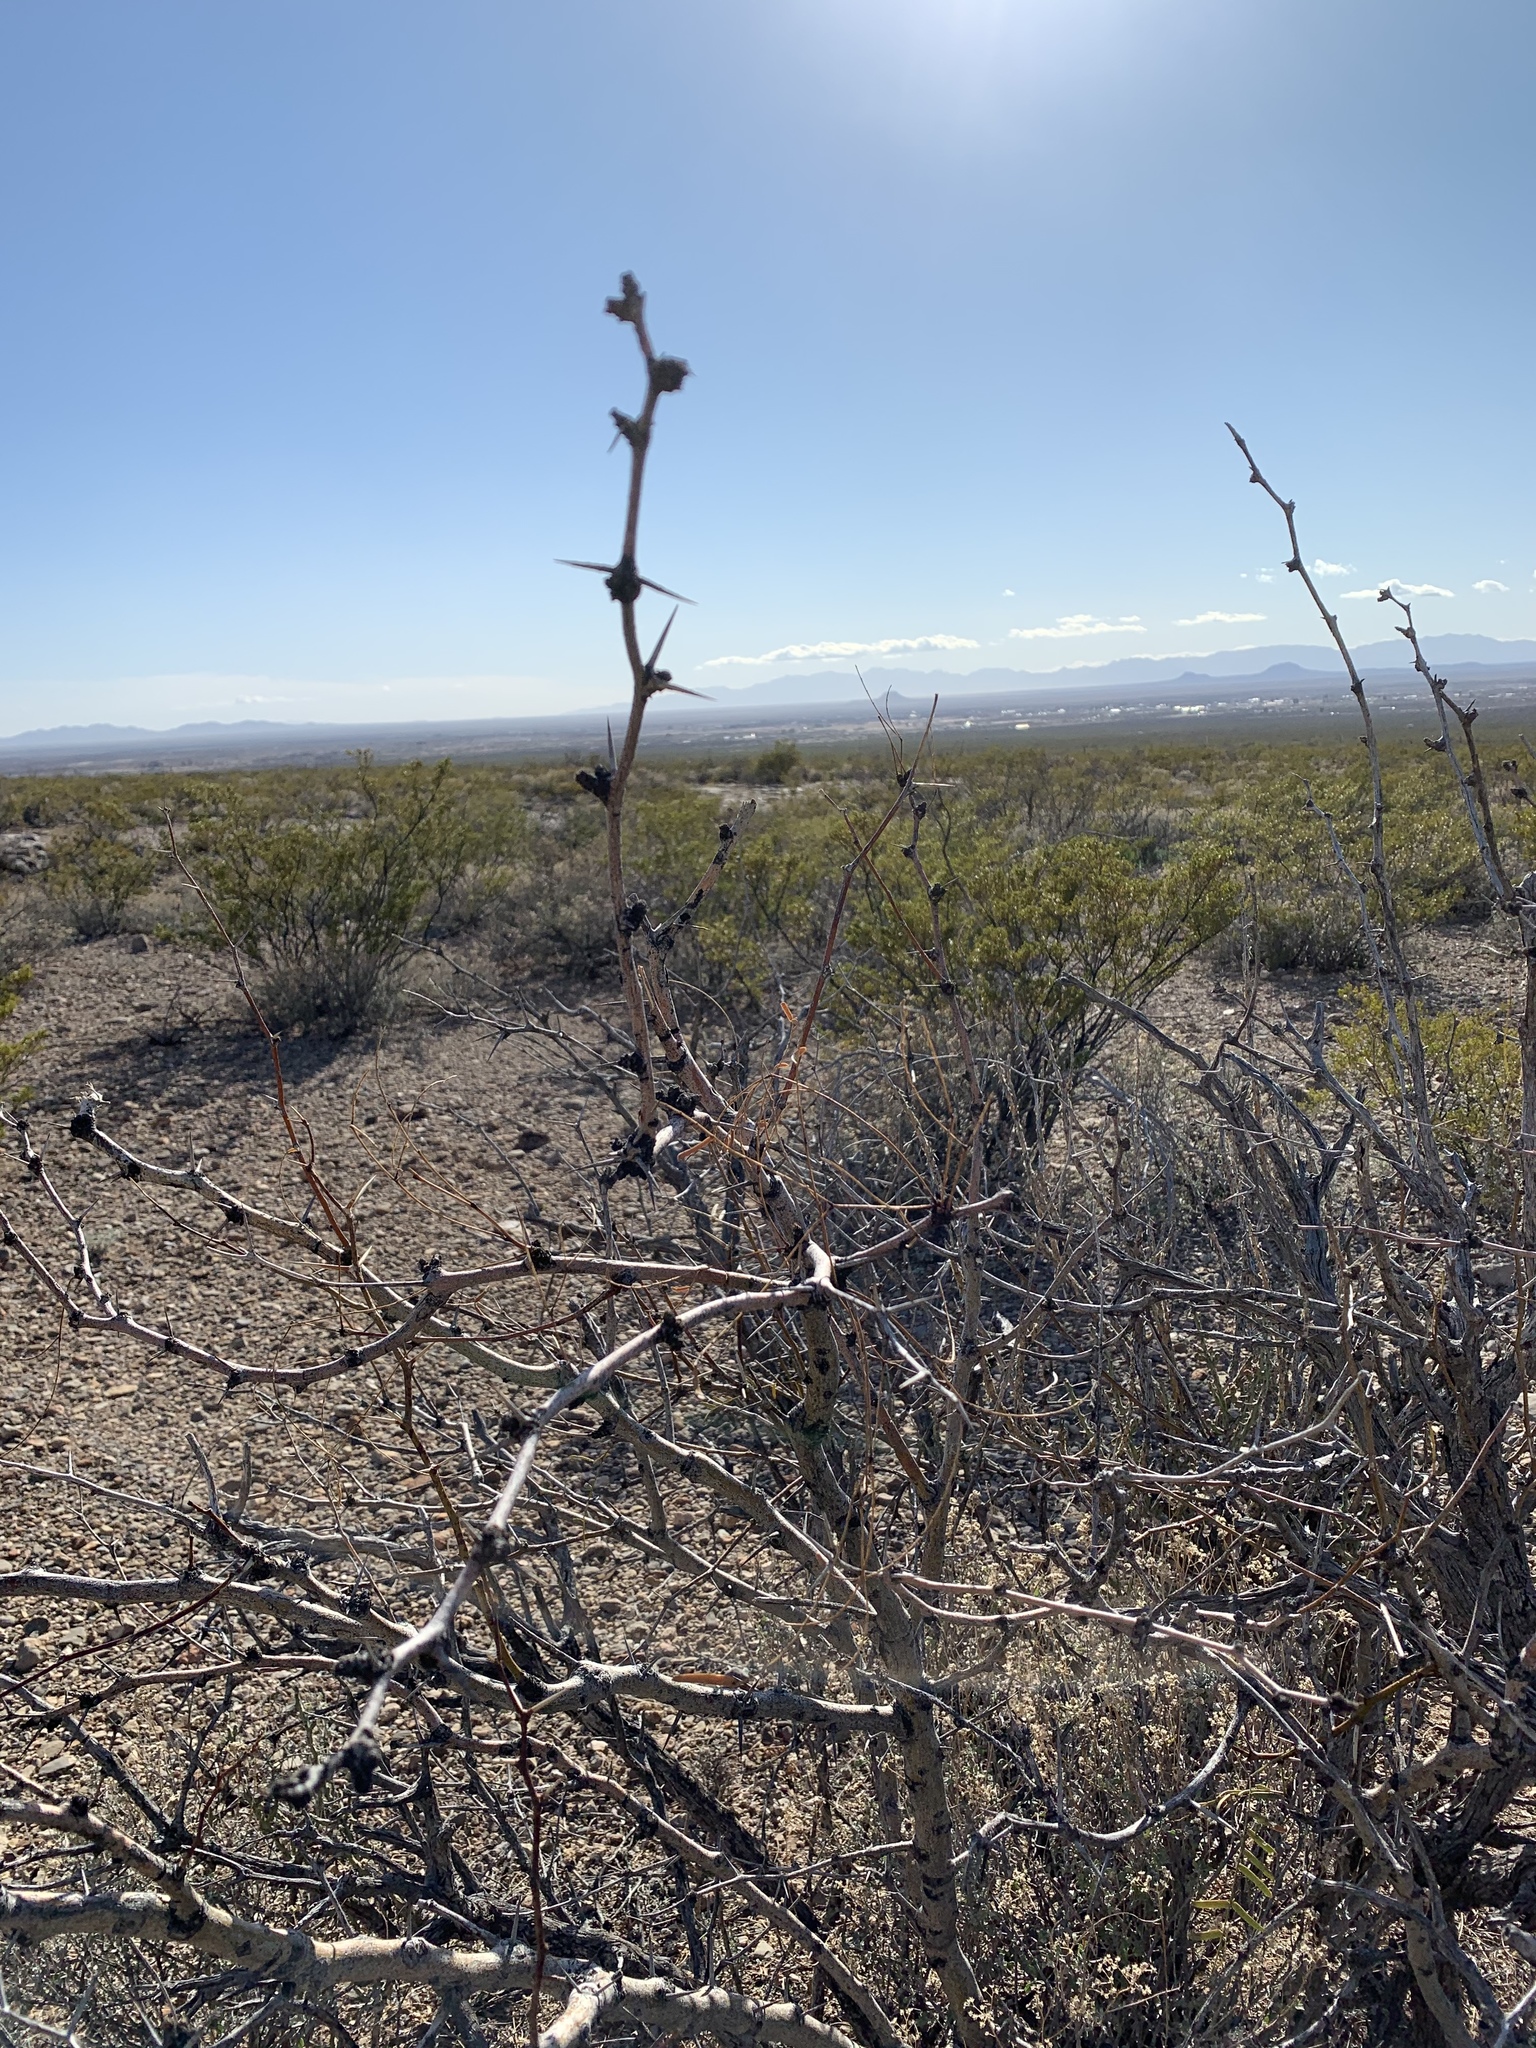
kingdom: Plantae
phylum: Tracheophyta
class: Magnoliopsida
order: Fabales
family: Fabaceae
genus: Prosopis
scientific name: Prosopis glandulosa
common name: Honey mesquite
